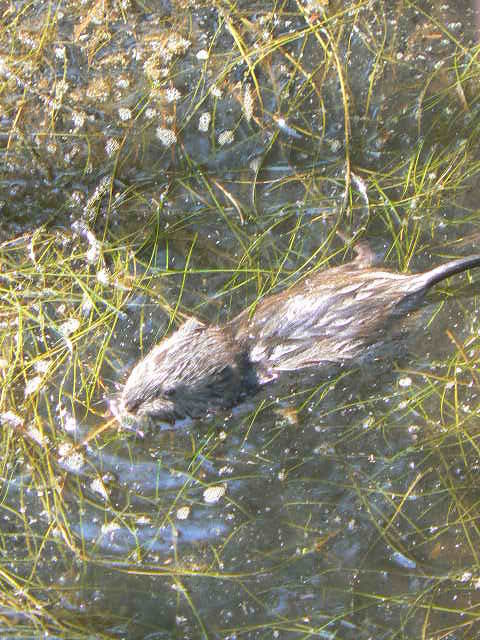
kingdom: Animalia
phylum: Chordata
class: Mammalia
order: Rodentia
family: Cricetidae
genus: Ondatra
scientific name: Ondatra zibethicus
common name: Muskrat
